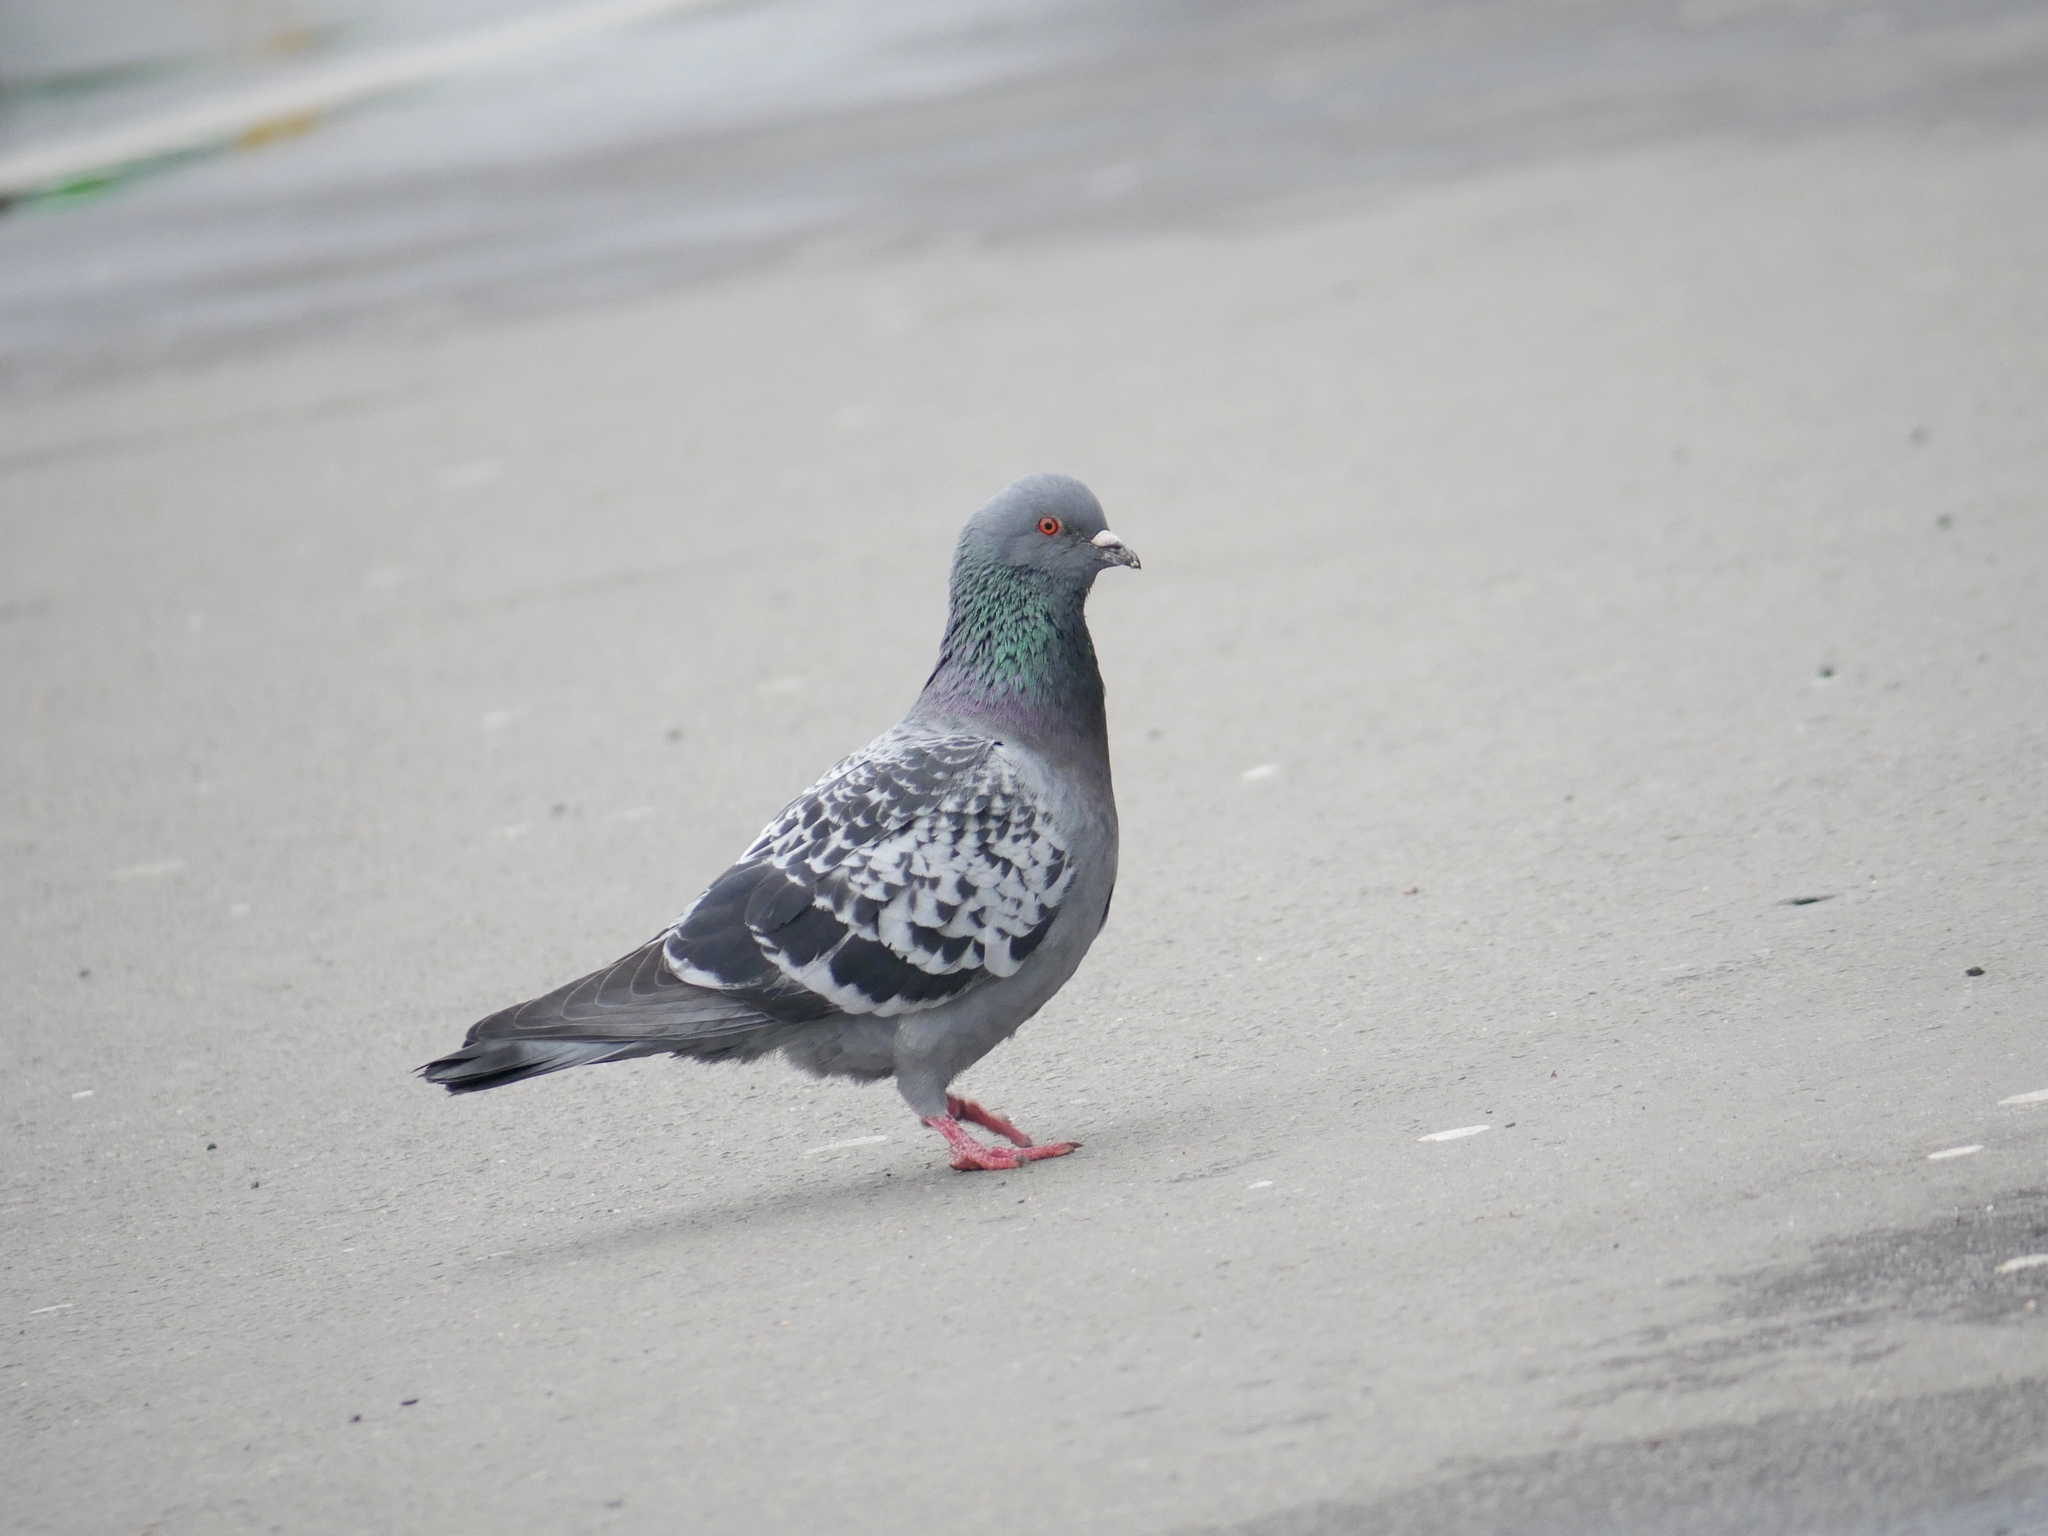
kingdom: Animalia
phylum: Chordata
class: Aves
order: Columbiformes
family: Columbidae
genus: Columba
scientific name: Columba livia
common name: Rock pigeon
